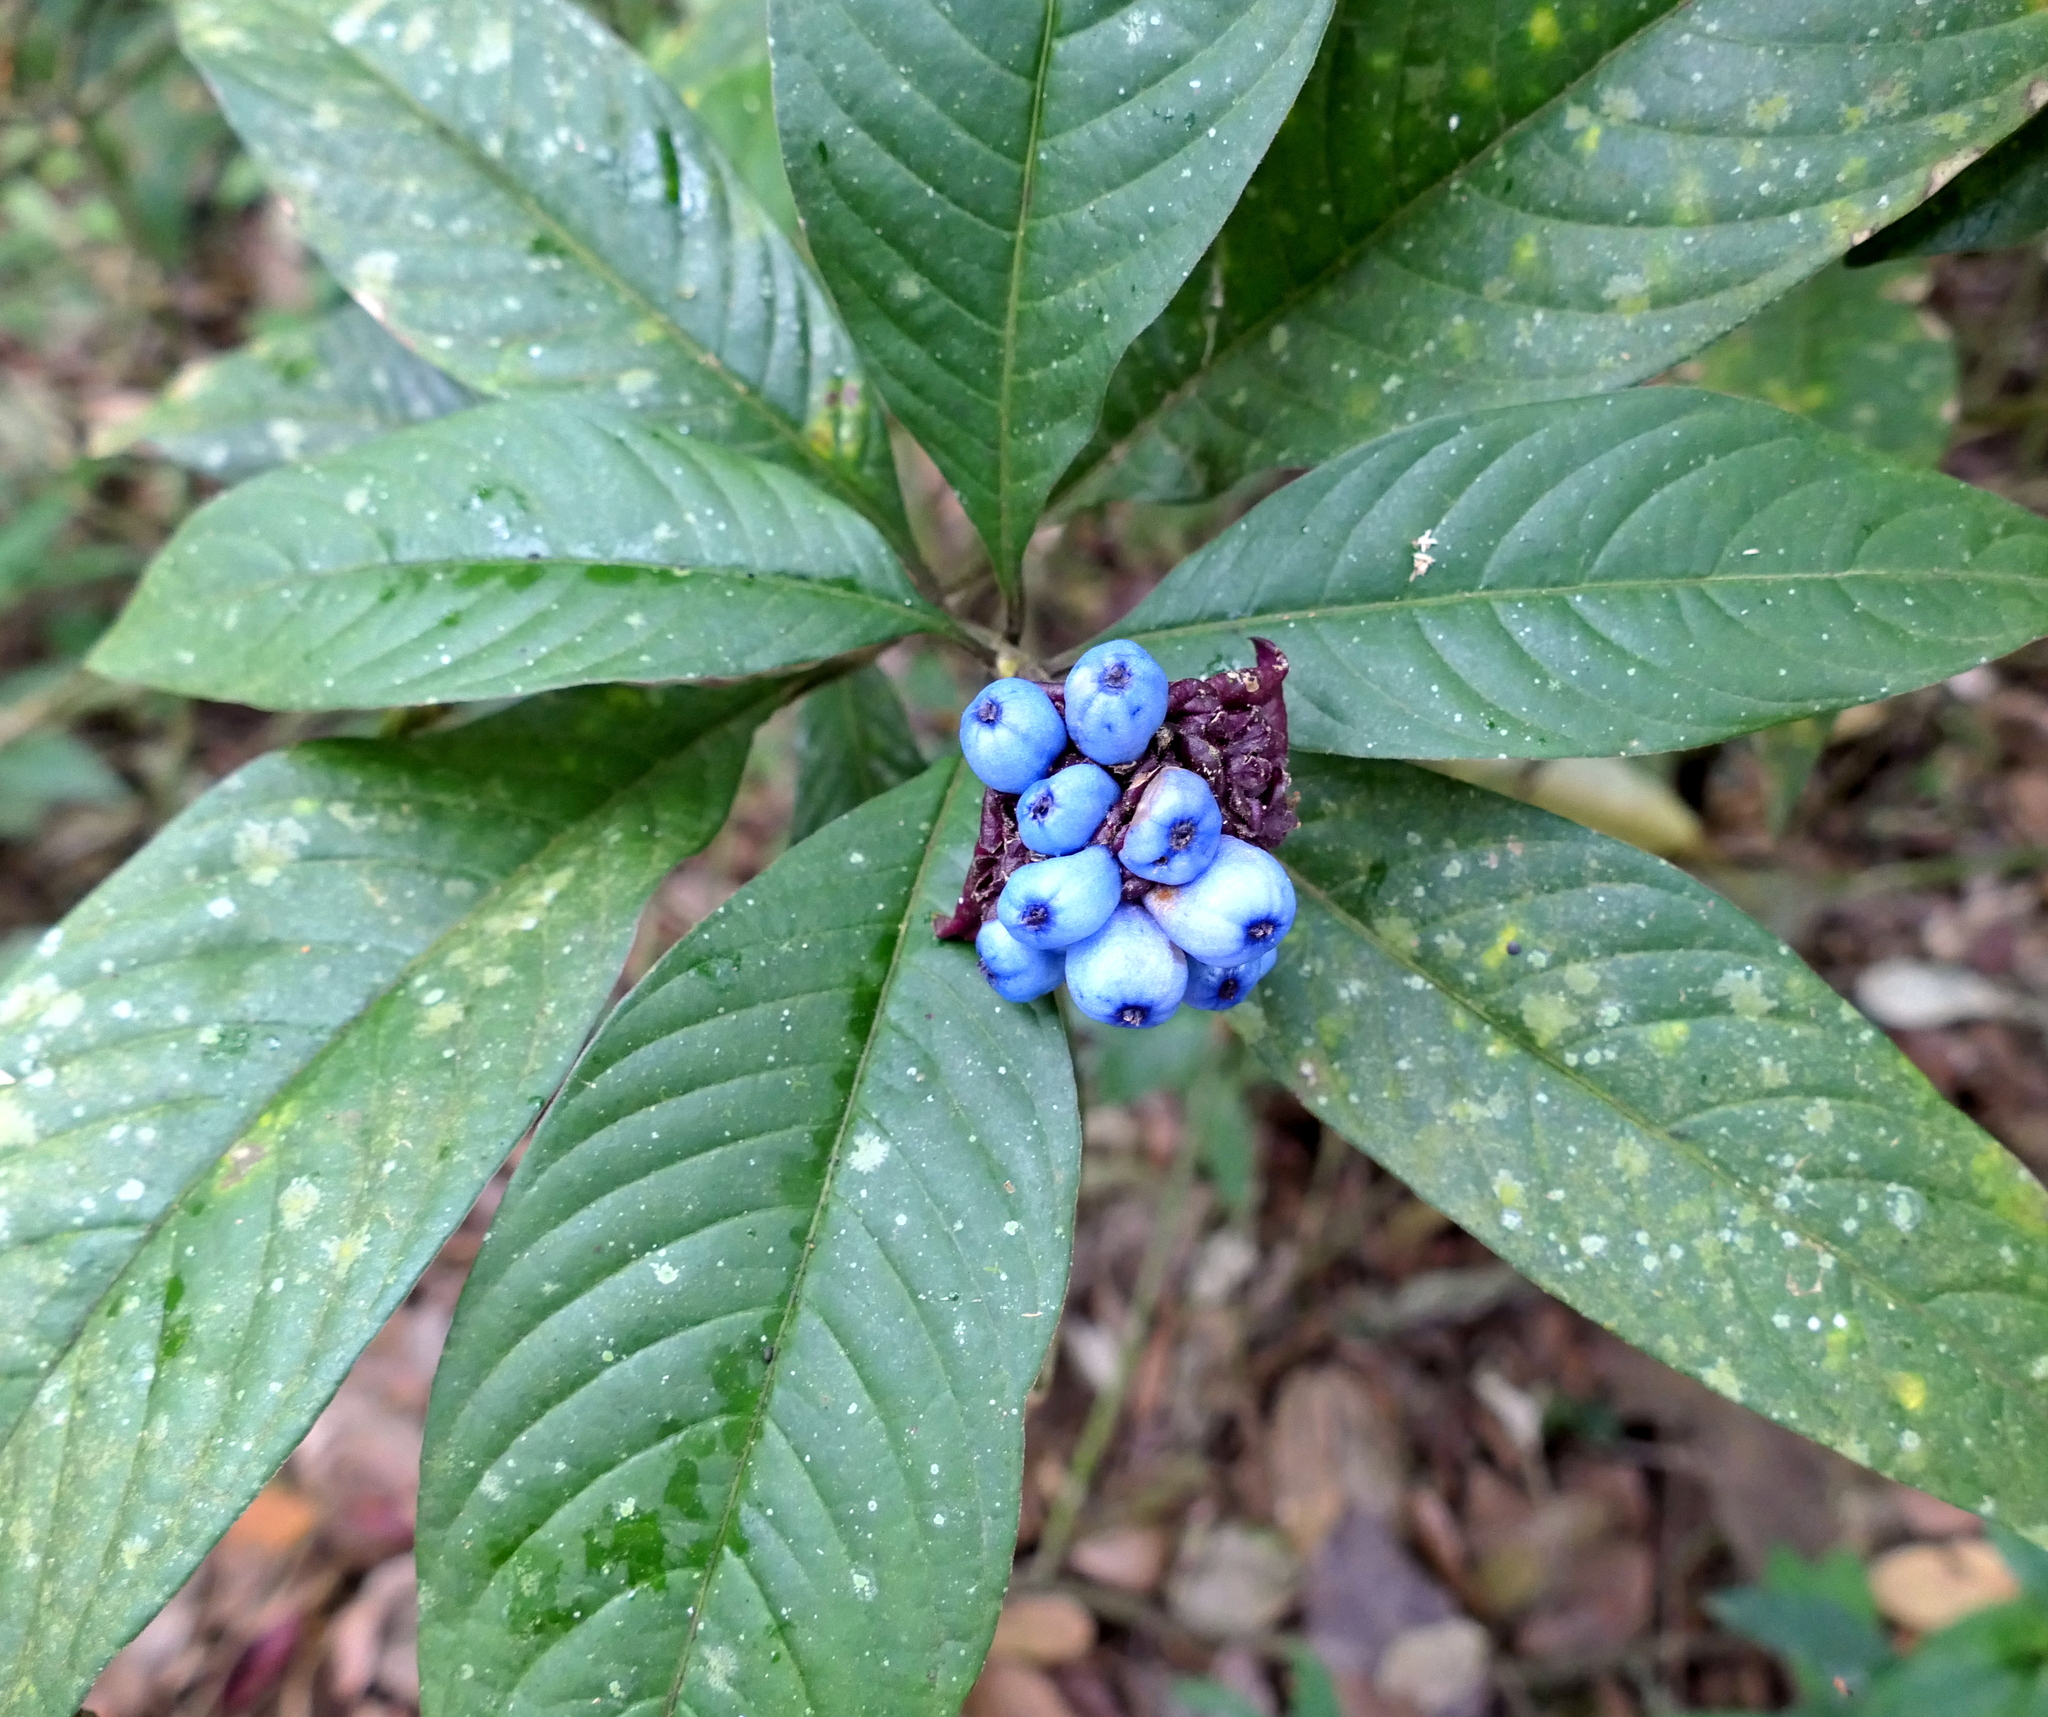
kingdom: Plantae
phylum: Tracheophyta
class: Magnoliopsida
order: Gentianales
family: Rubiaceae
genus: Palicourea
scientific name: Palicourea colorata
